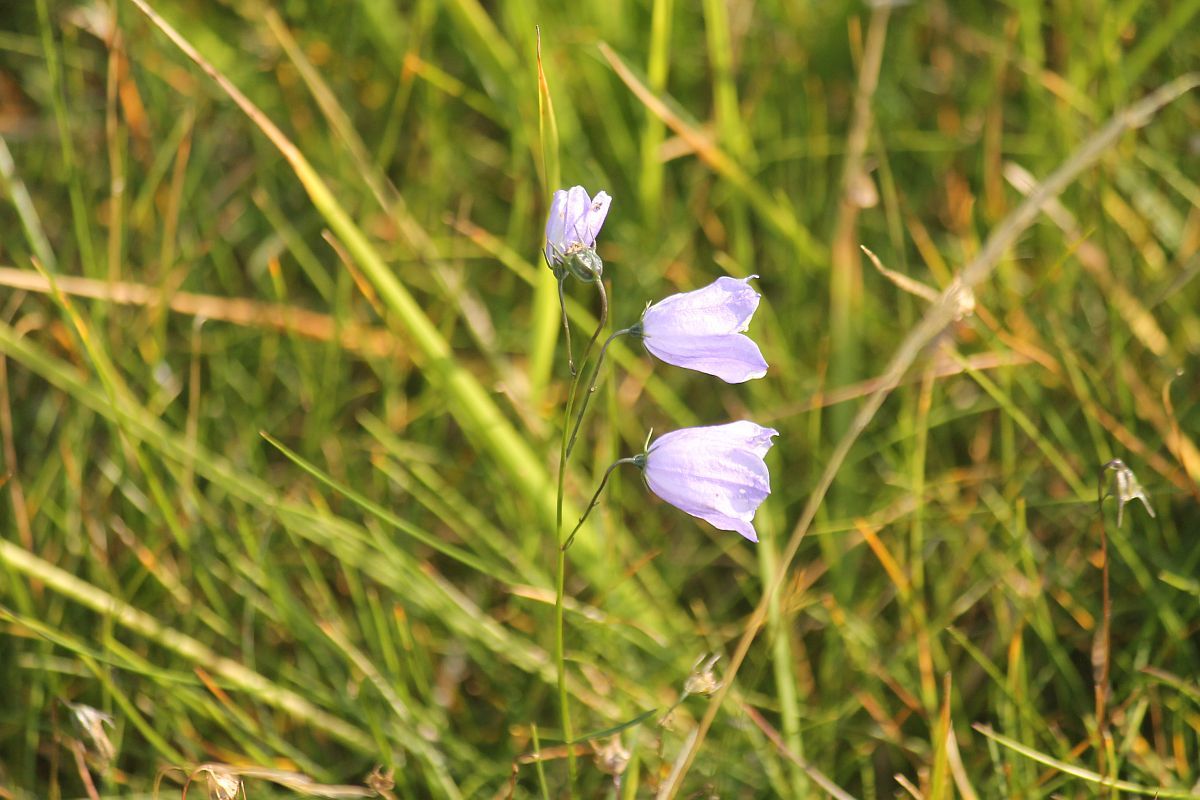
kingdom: Plantae
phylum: Tracheophyta
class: Magnoliopsida
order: Asterales
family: Campanulaceae
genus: Campanula
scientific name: Campanula rotundifolia
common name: Harebell
